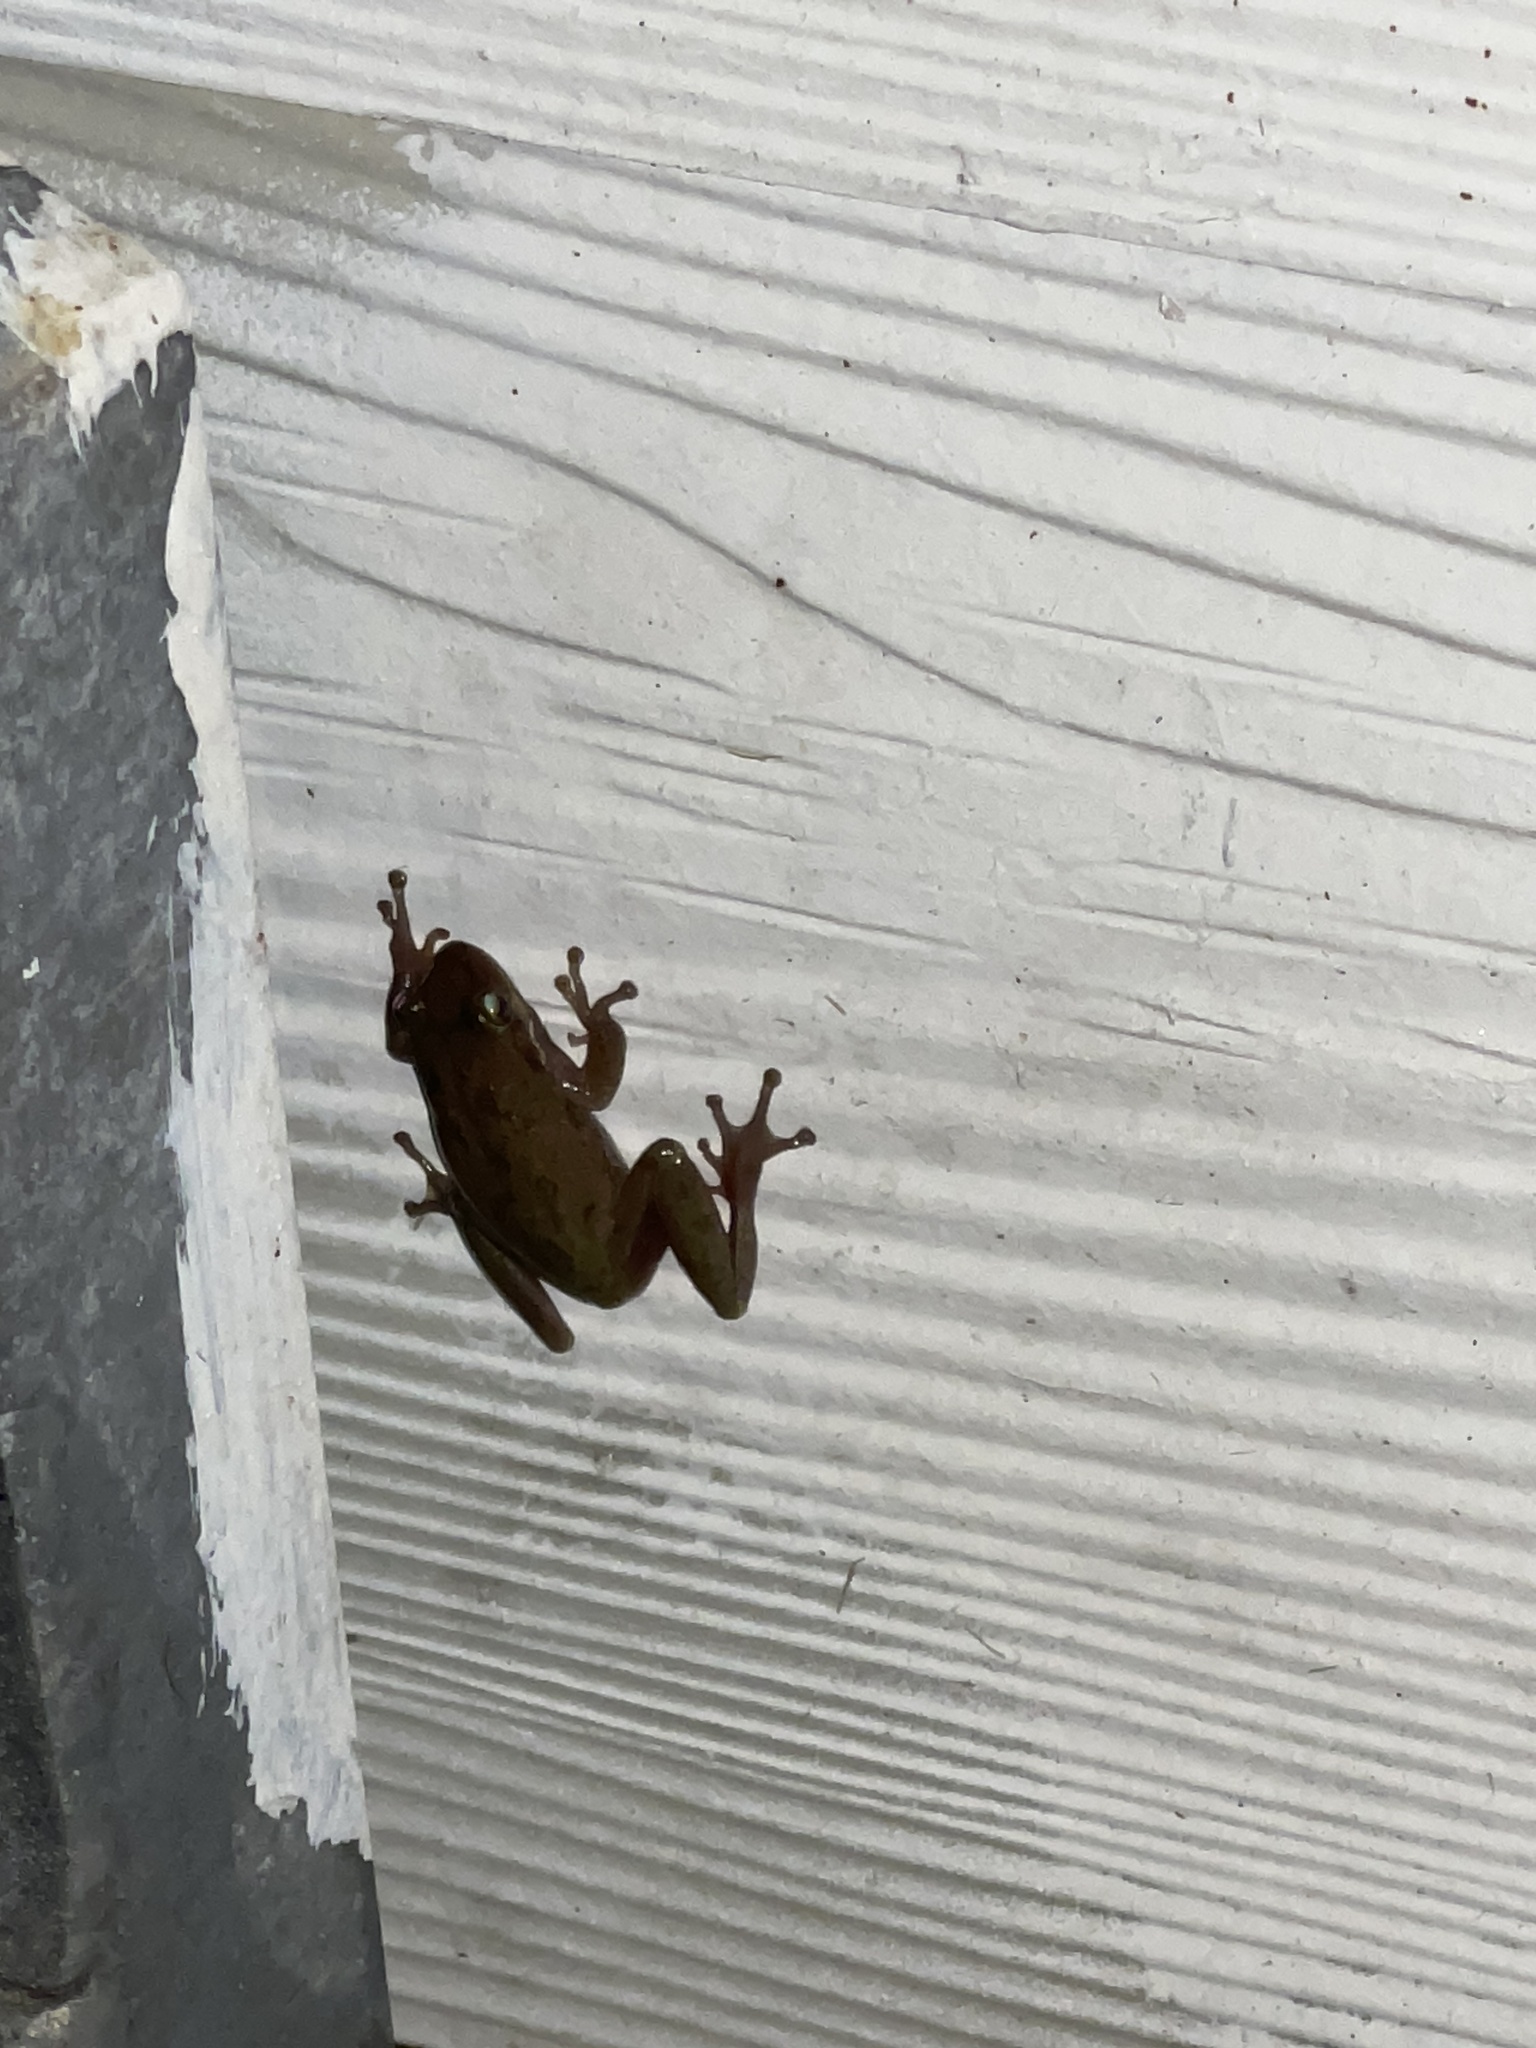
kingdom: Animalia
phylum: Chordata
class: Amphibia
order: Anura
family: Hylidae
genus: Dryophytes
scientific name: Dryophytes squirellus
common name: Squirrel treefrog
